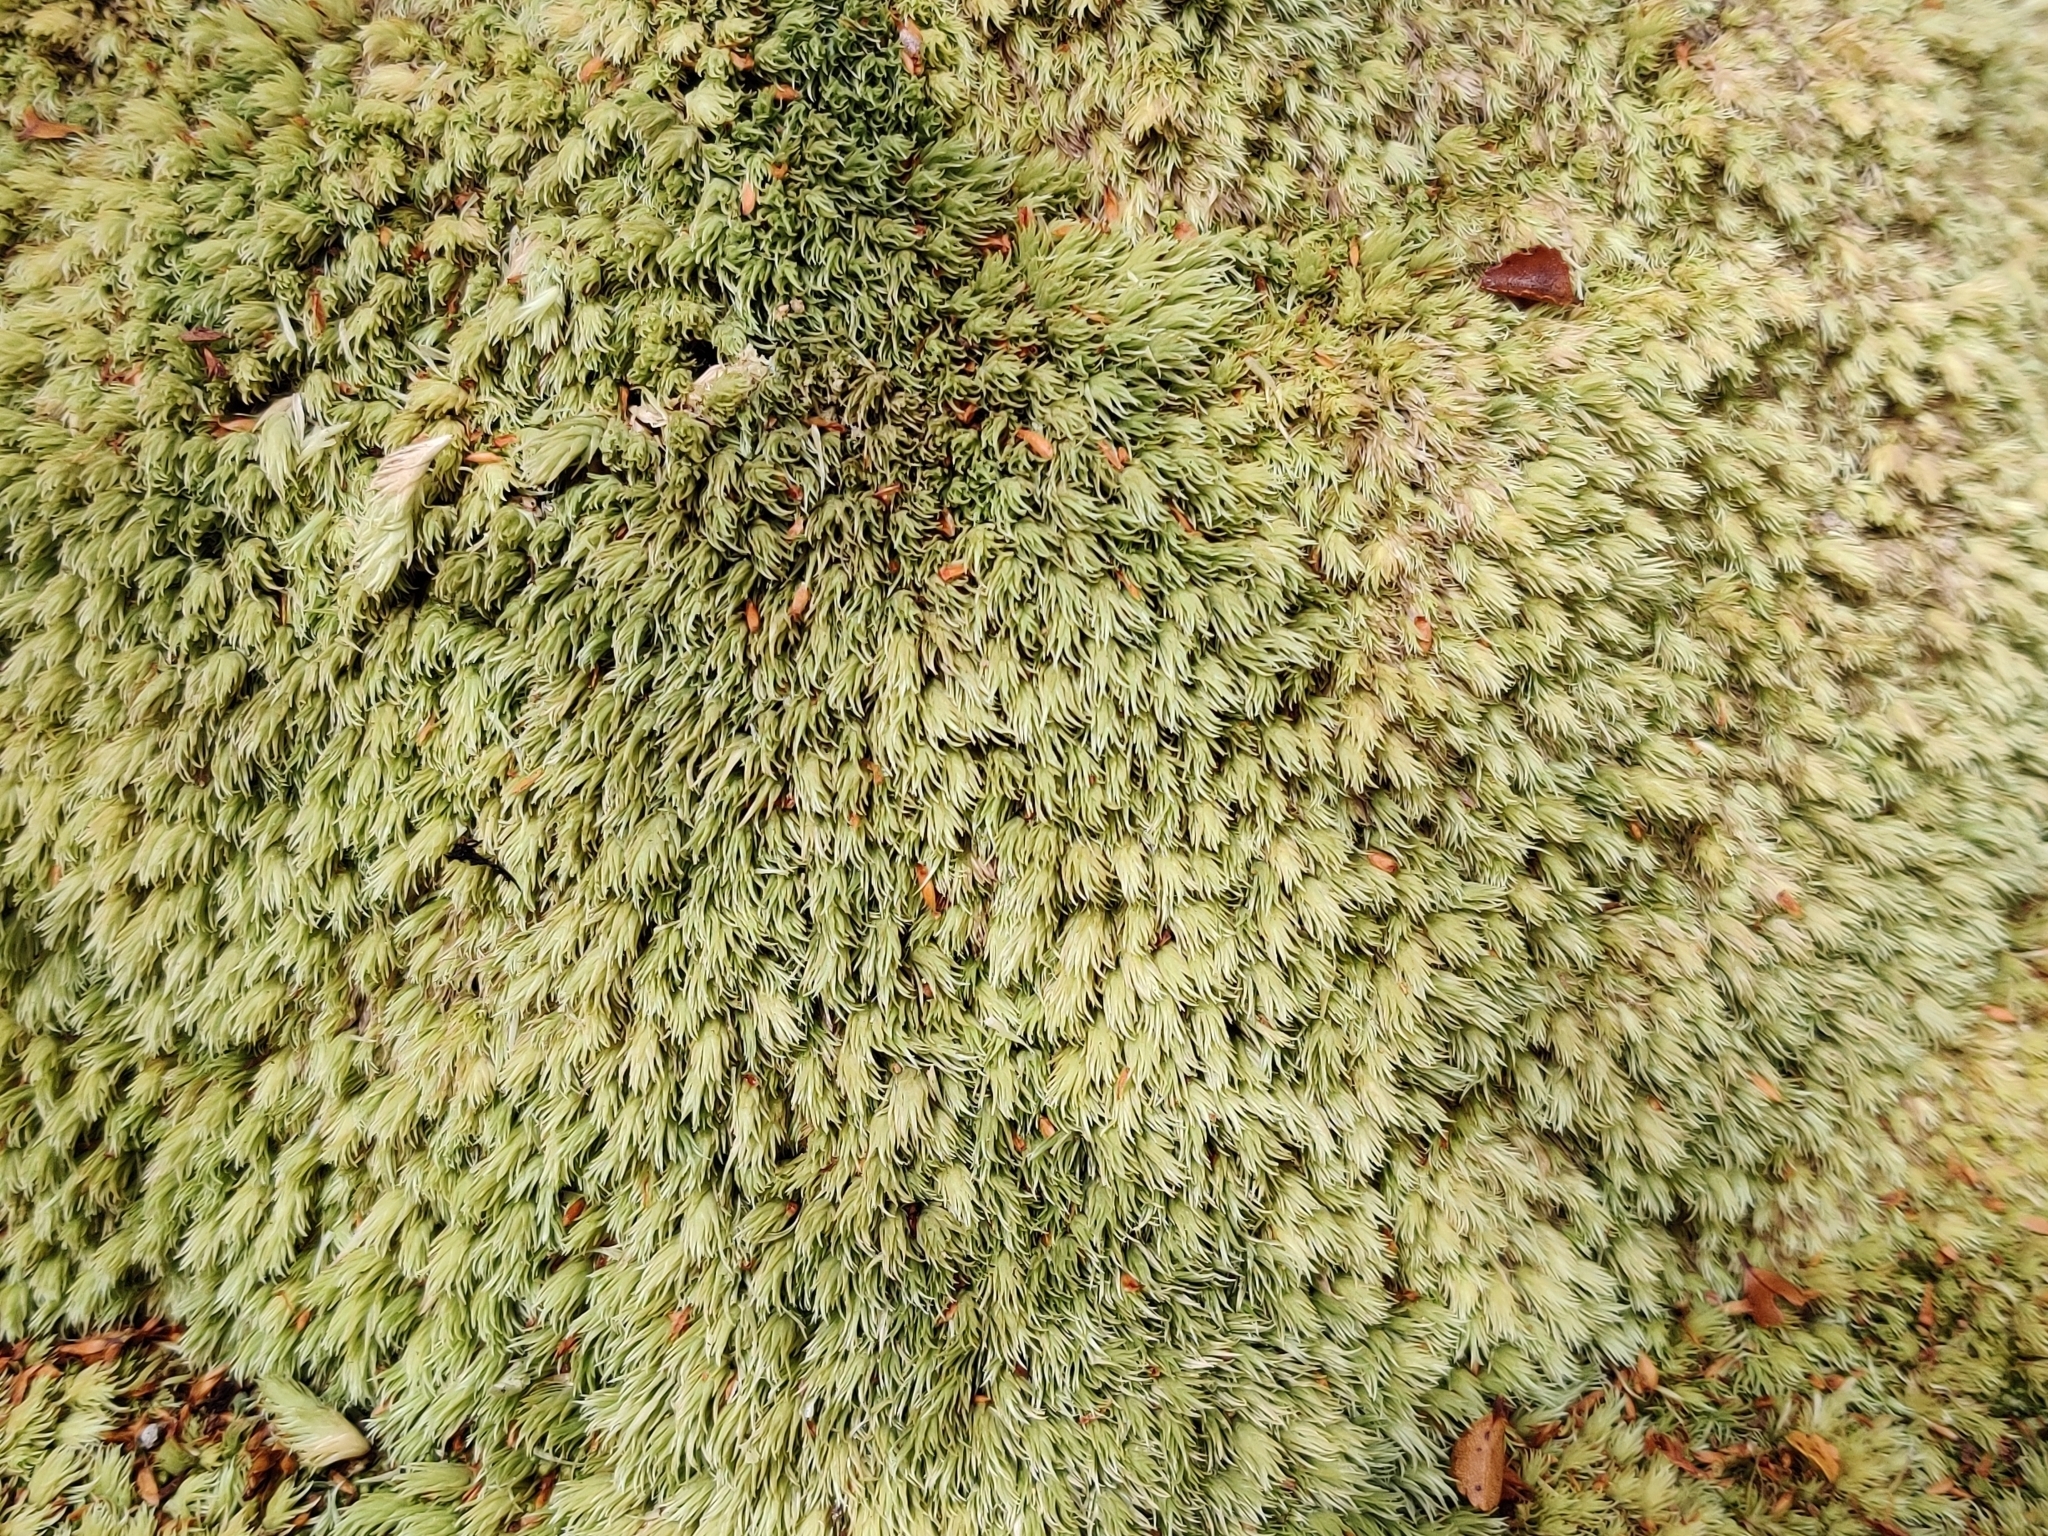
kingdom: Plantae
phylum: Bryophyta
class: Bryopsida
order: Dicranales
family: Leucobryaceae
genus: Leucobryum
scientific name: Leucobryum javense
